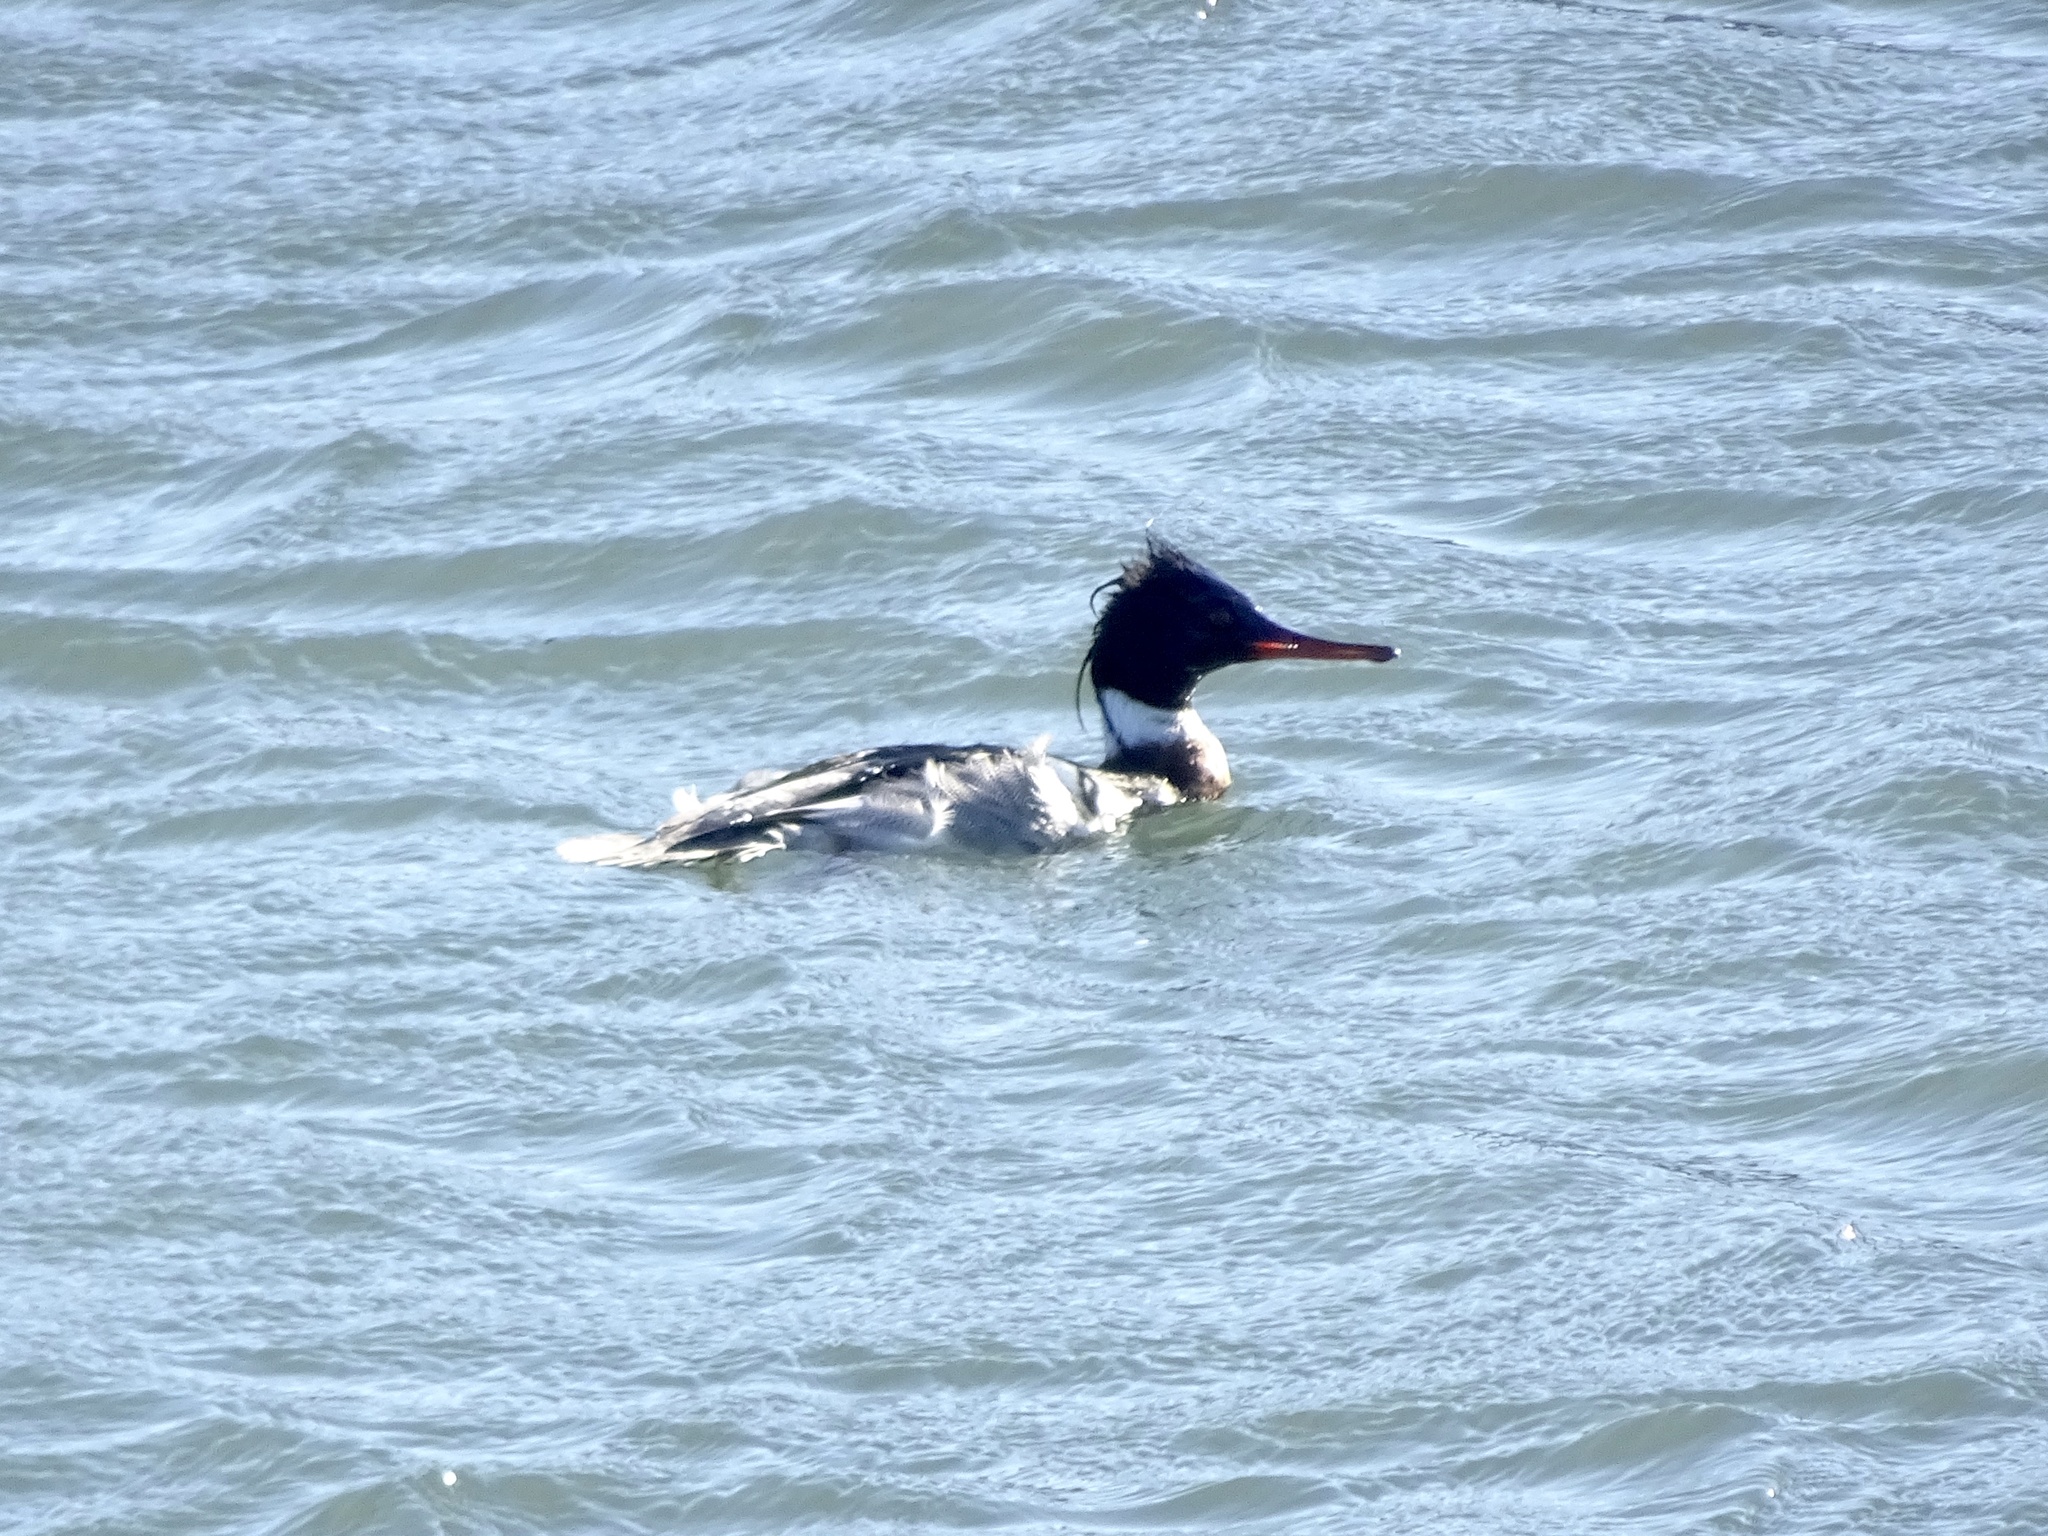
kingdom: Animalia
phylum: Chordata
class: Aves
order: Anseriformes
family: Anatidae
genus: Mergus
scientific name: Mergus serrator
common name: Red-breasted merganser
